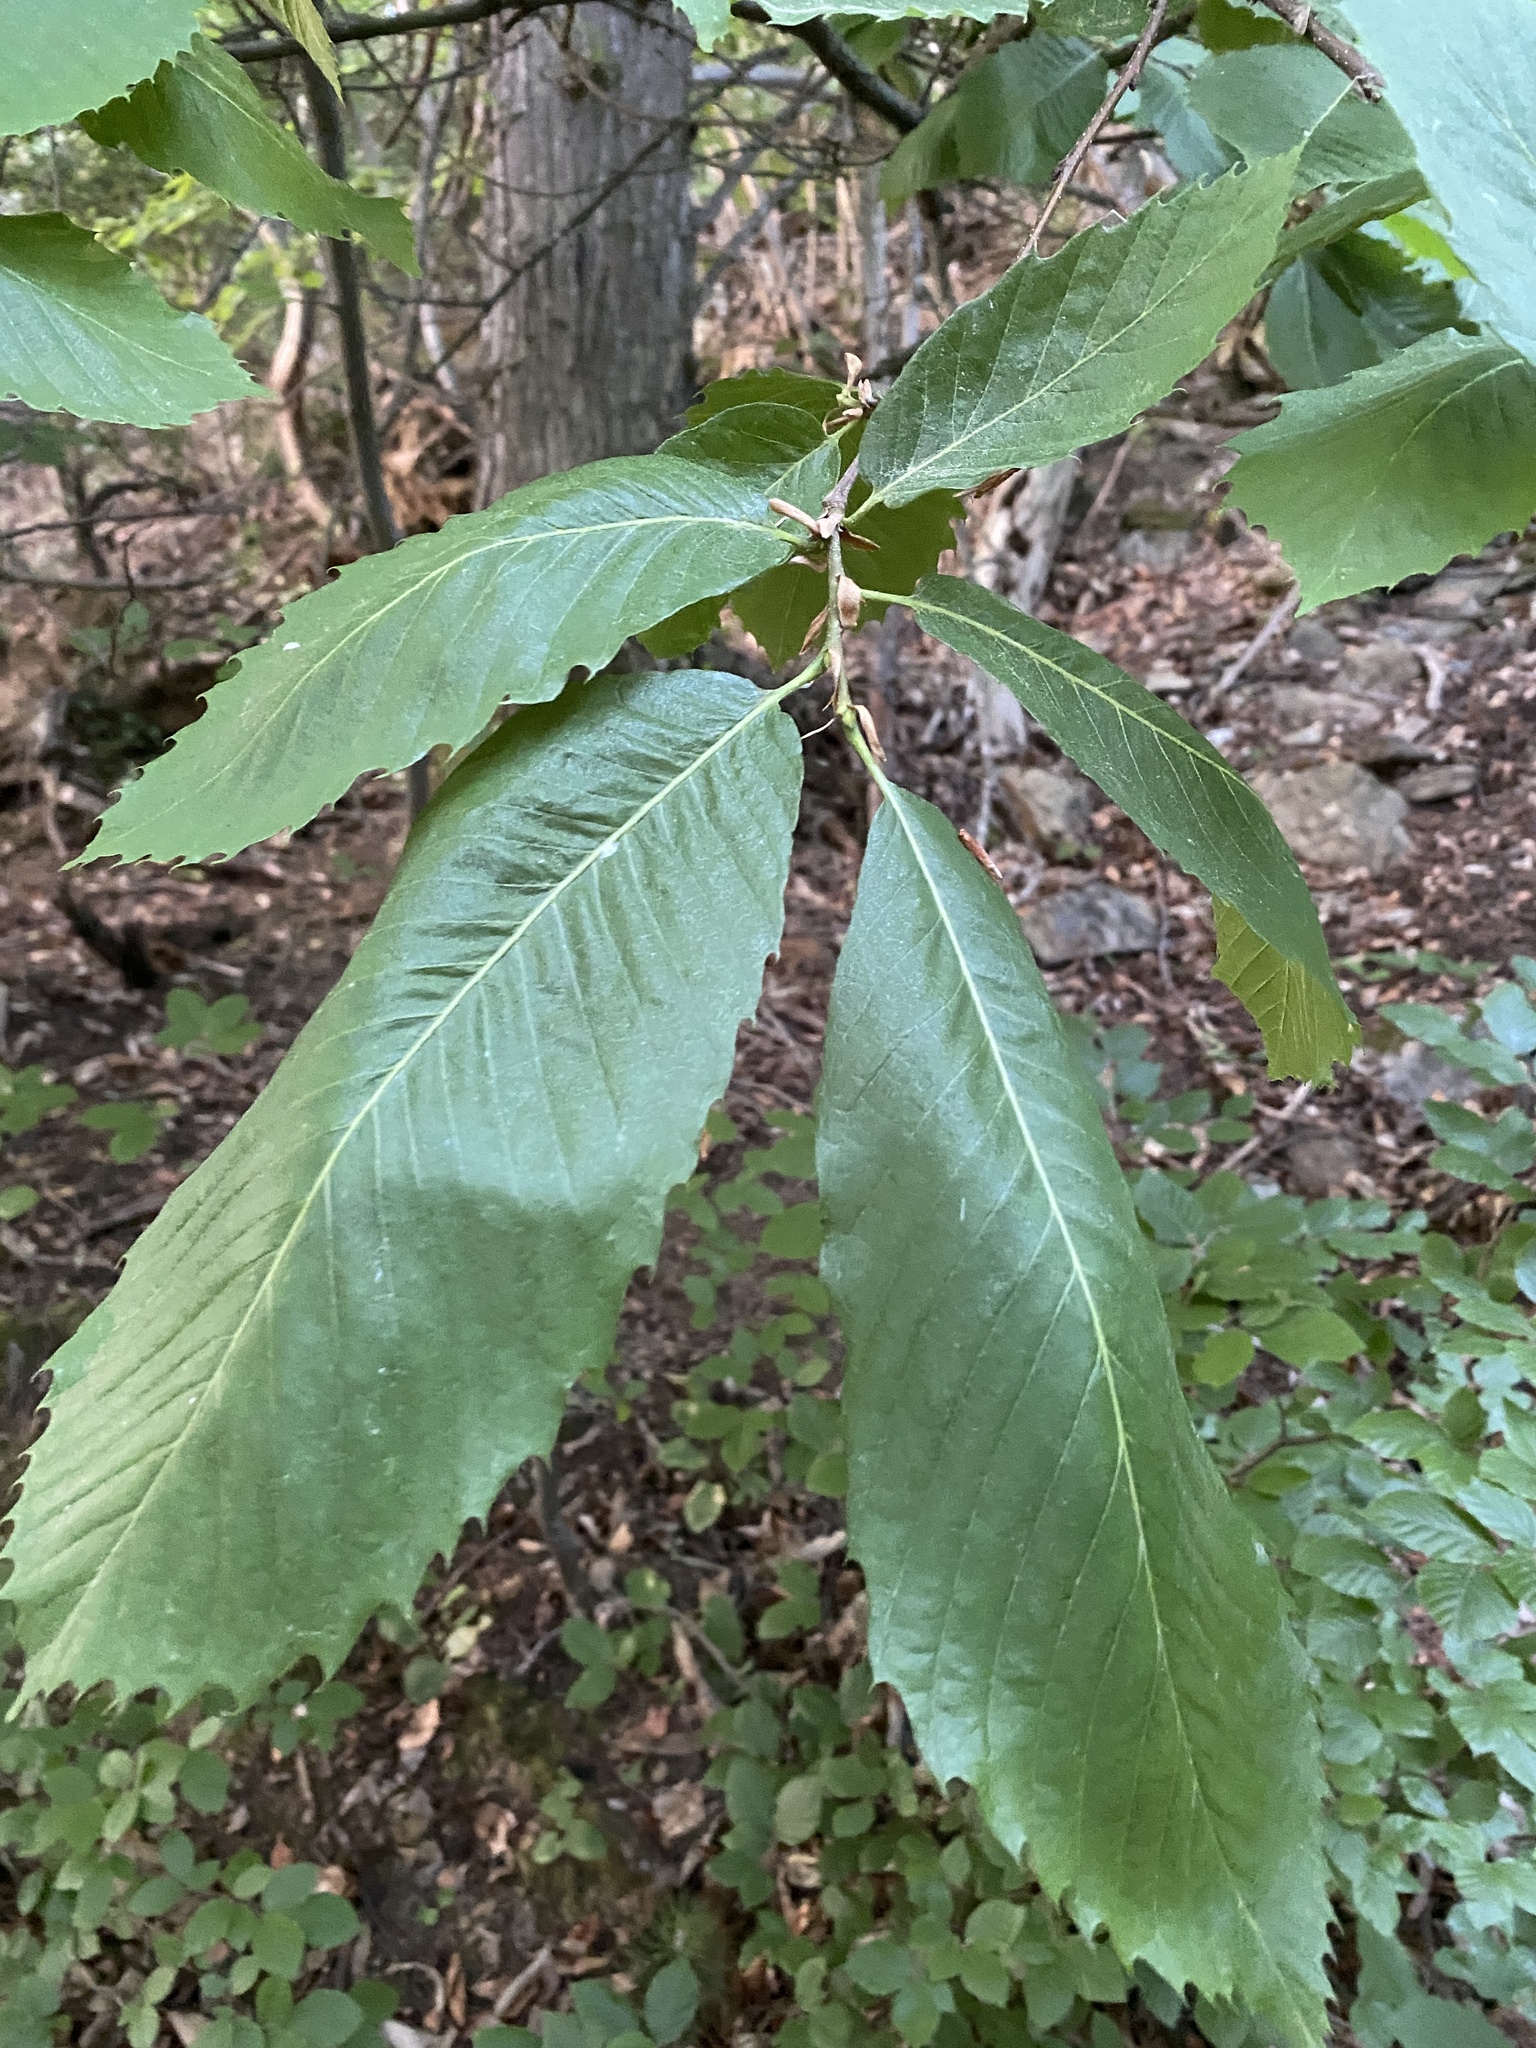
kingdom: Plantae
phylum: Tracheophyta
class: Magnoliopsida
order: Fagales
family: Fagaceae
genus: Castanea
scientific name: Castanea sativa
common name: Sweet chestnut
